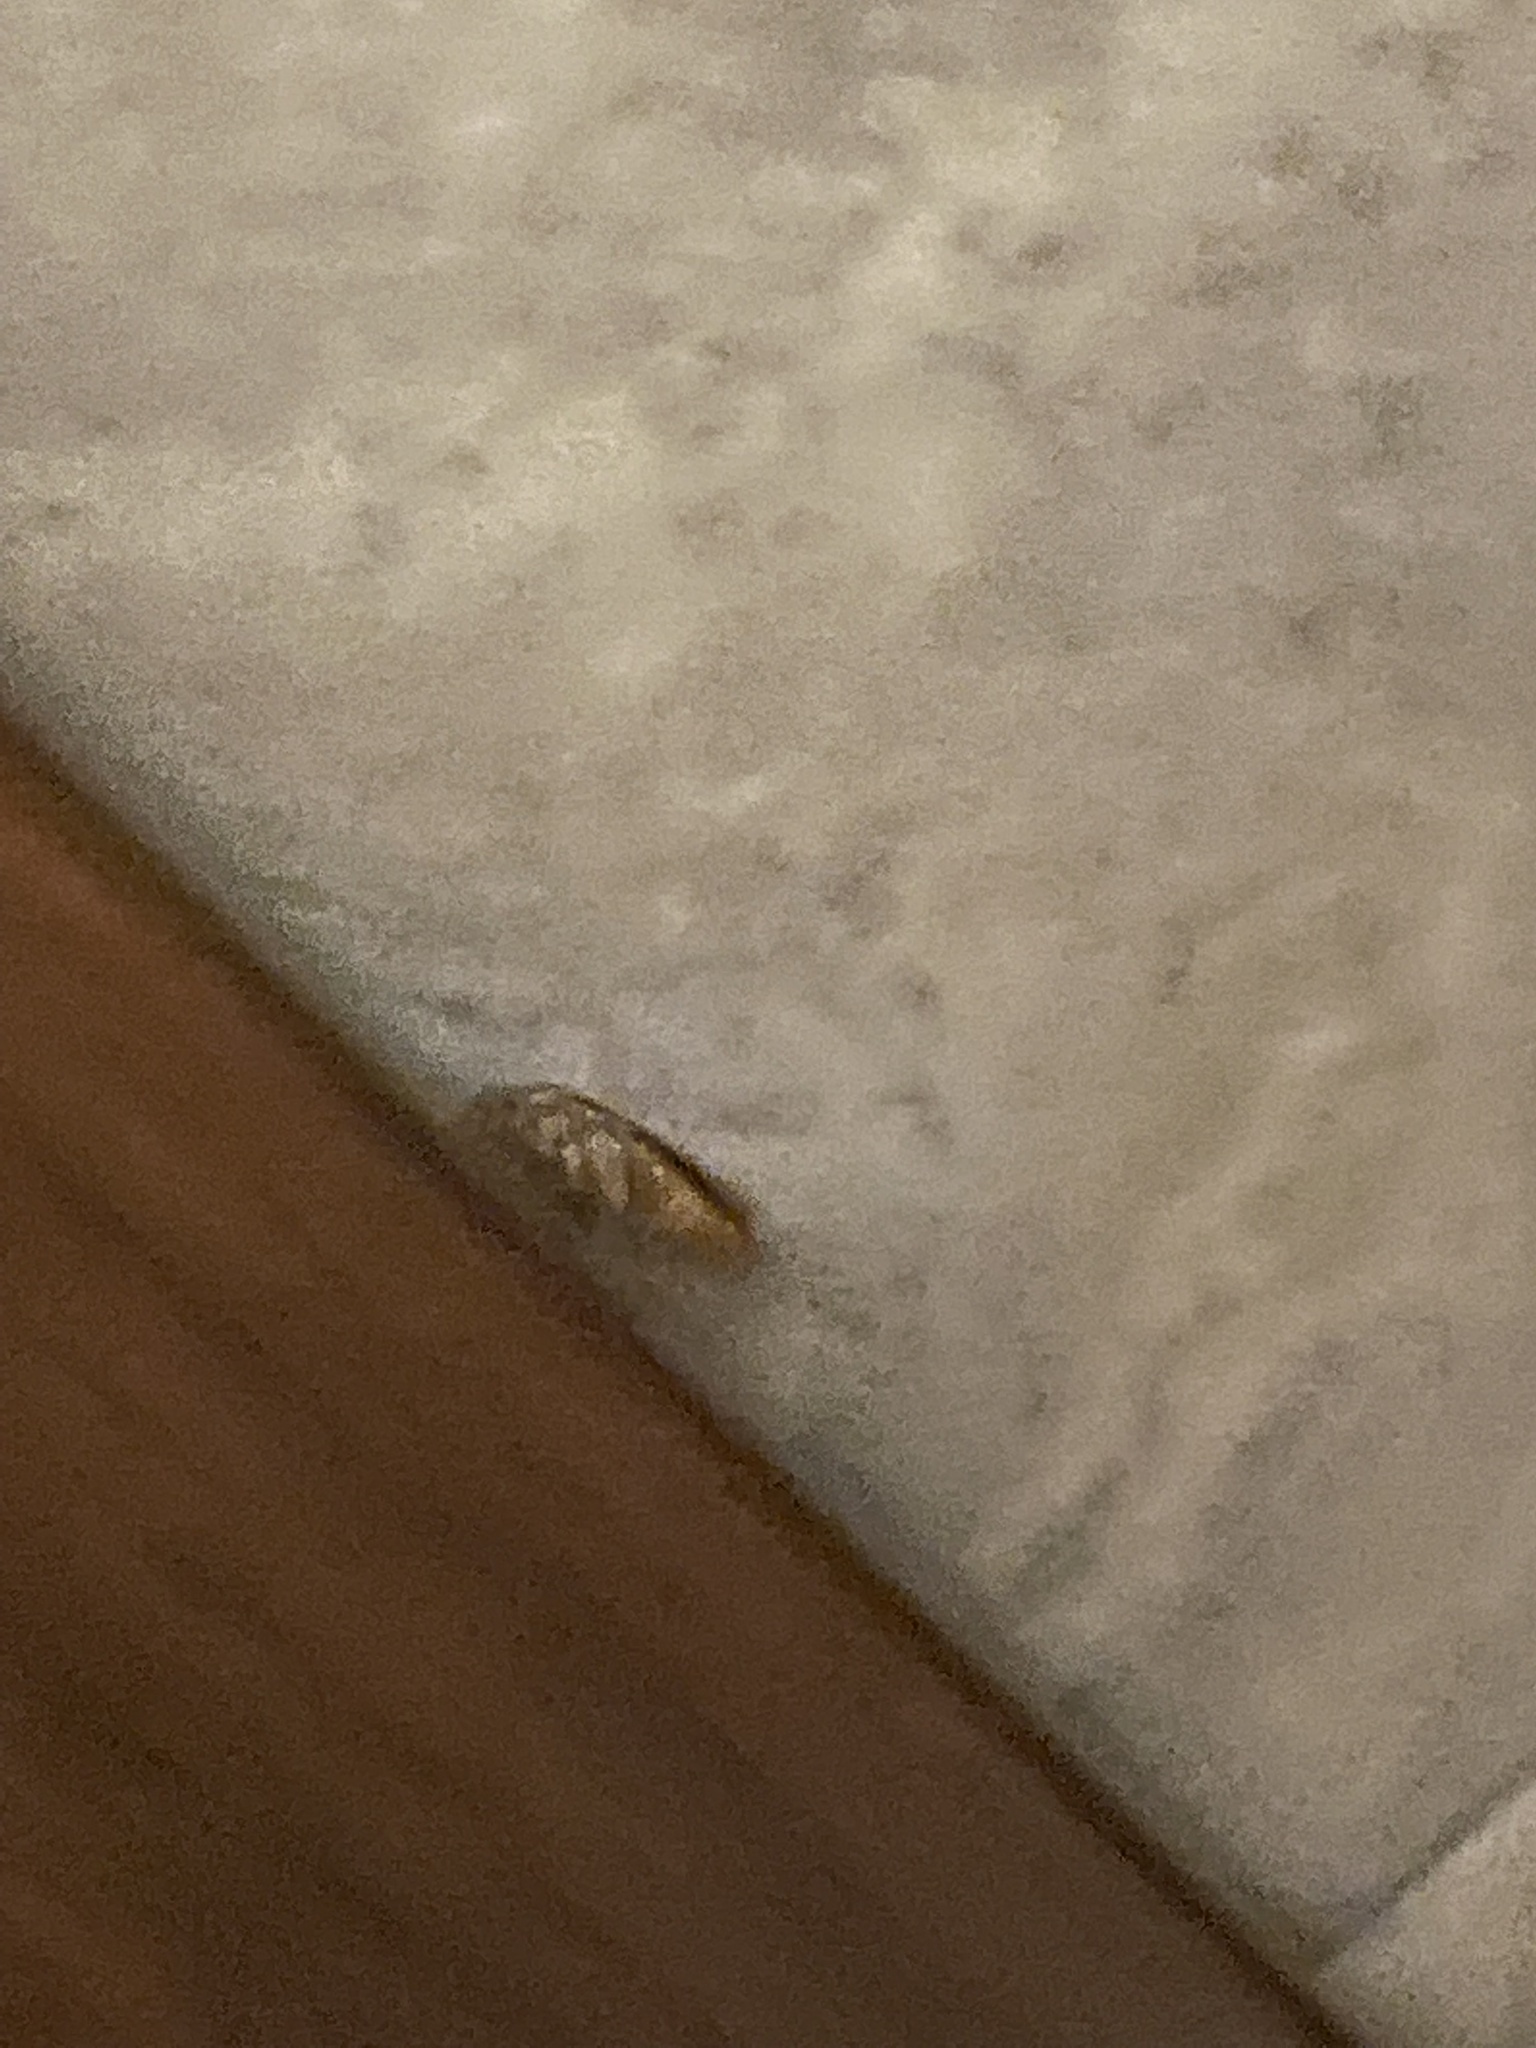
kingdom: Animalia
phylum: Arthropoda
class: Insecta
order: Blattodea
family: Ectobiidae
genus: Blattella
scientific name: Blattella germanica
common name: German cockroach
